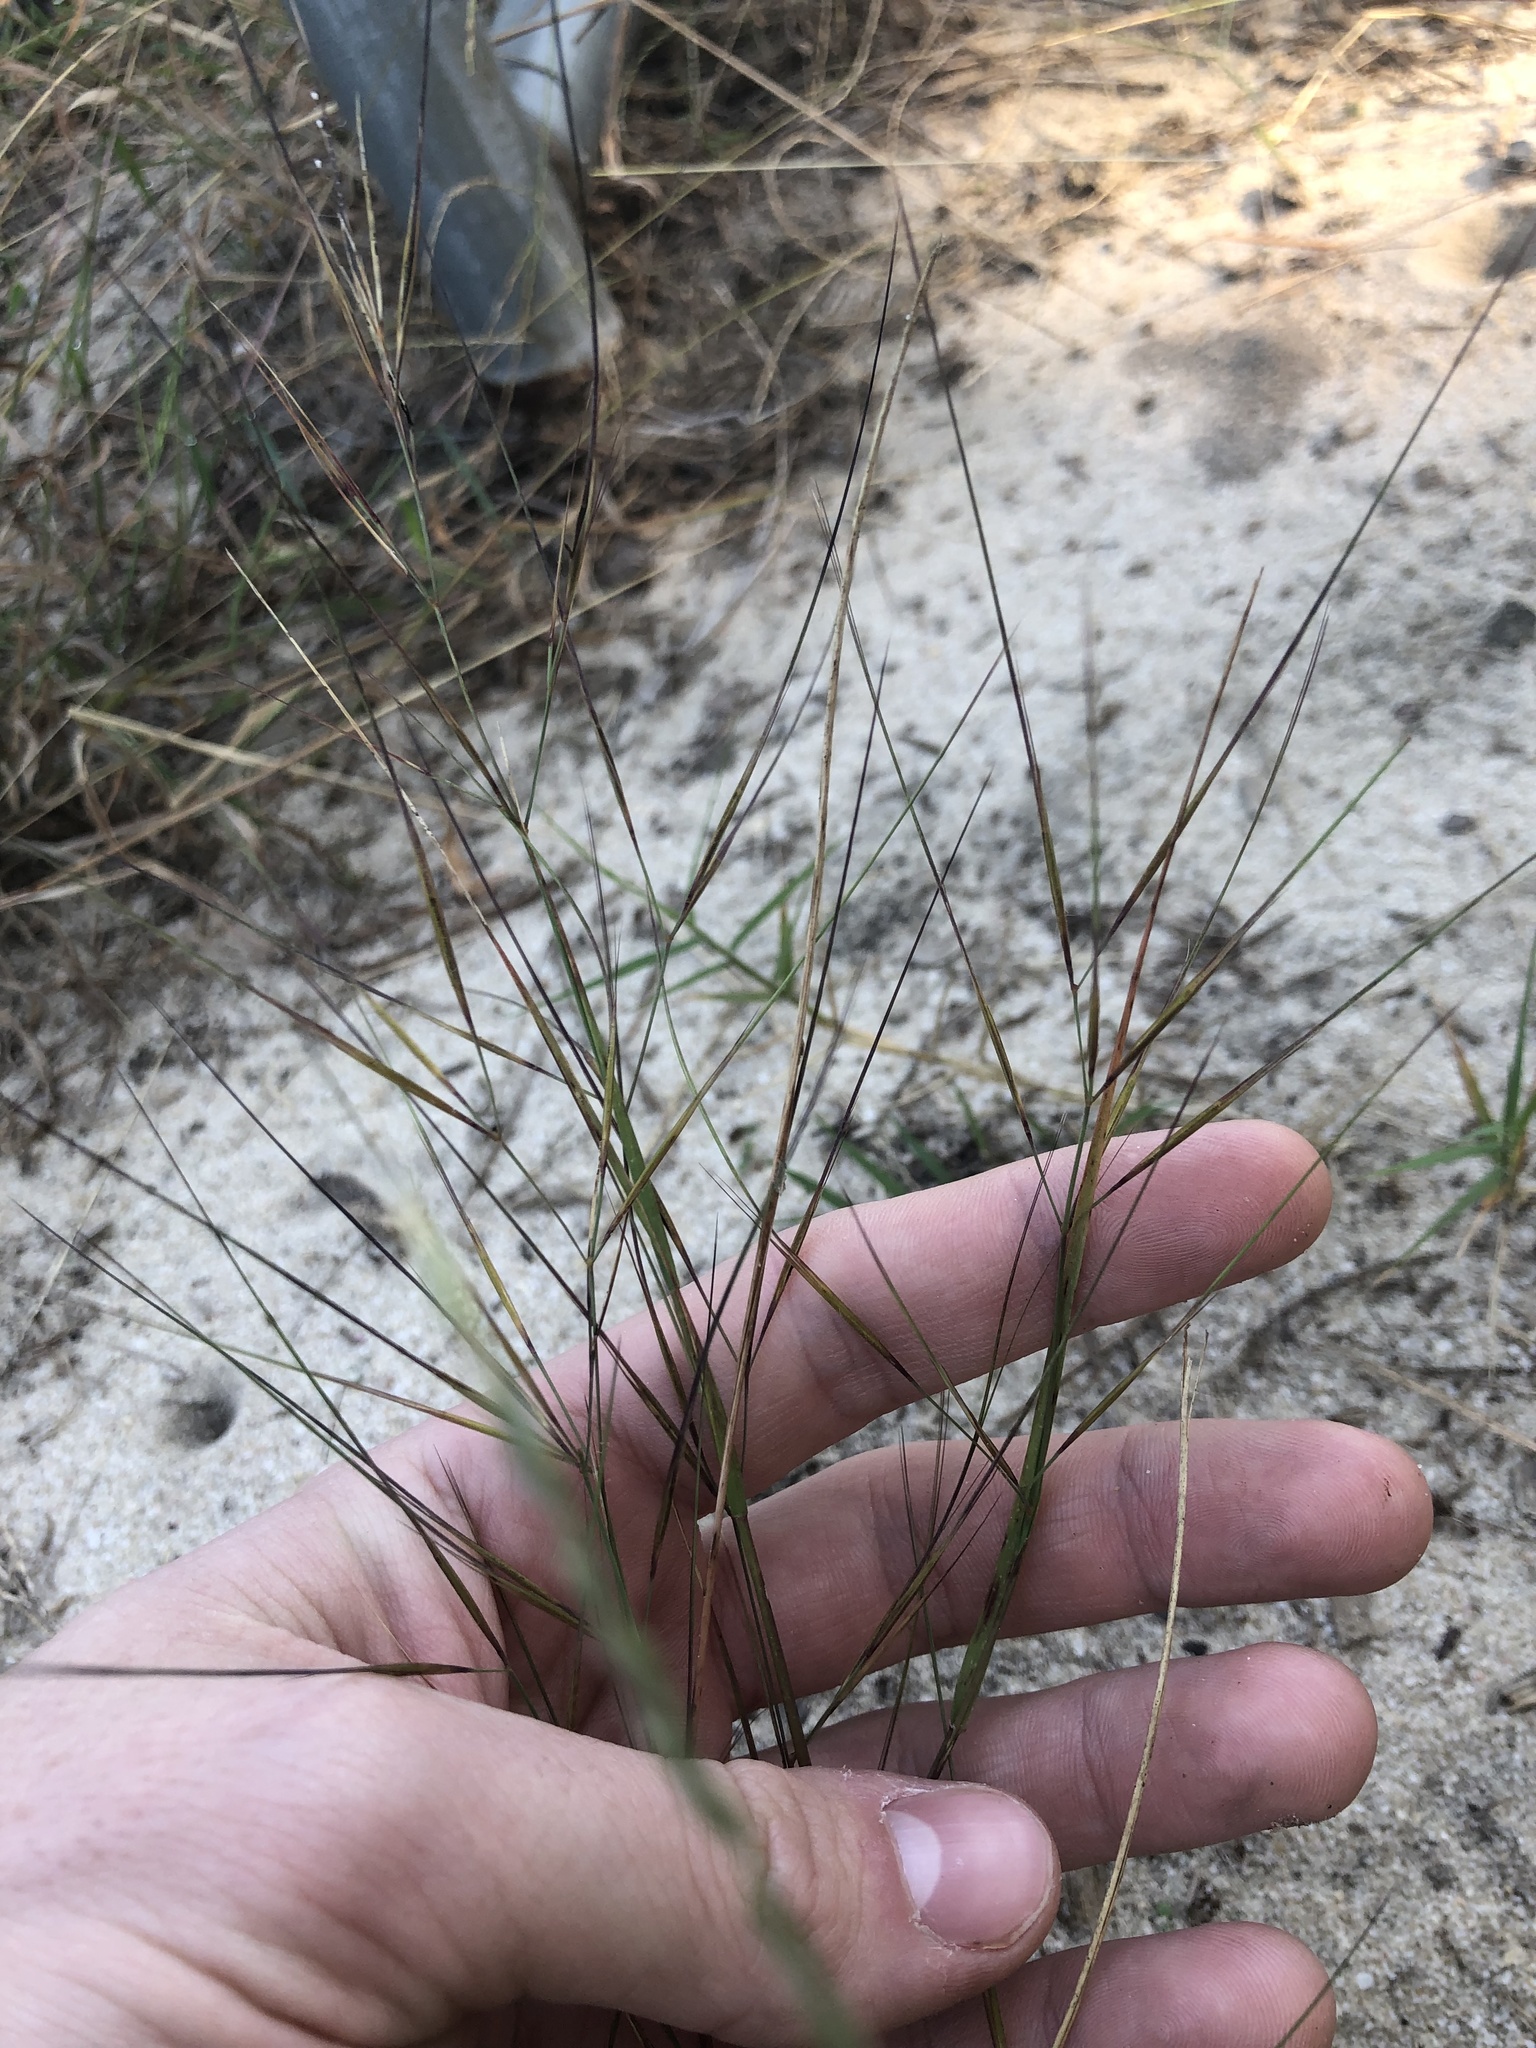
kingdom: Plantae
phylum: Tracheophyta
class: Liliopsida
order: Poales
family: Poaceae
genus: Aristida
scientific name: Aristida tuberculosa
